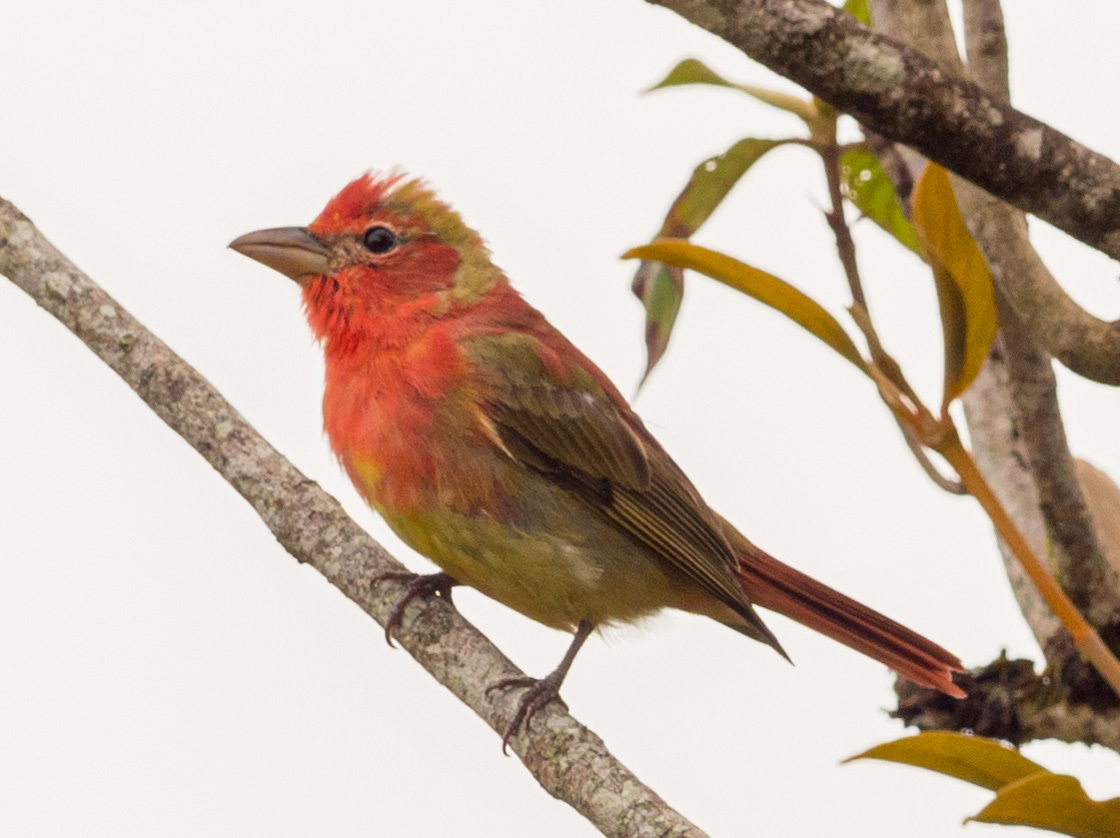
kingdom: Animalia
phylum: Chordata
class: Aves
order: Passeriformes
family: Cardinalidae
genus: Piranga
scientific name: Piranga rubra
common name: Summer tanager
